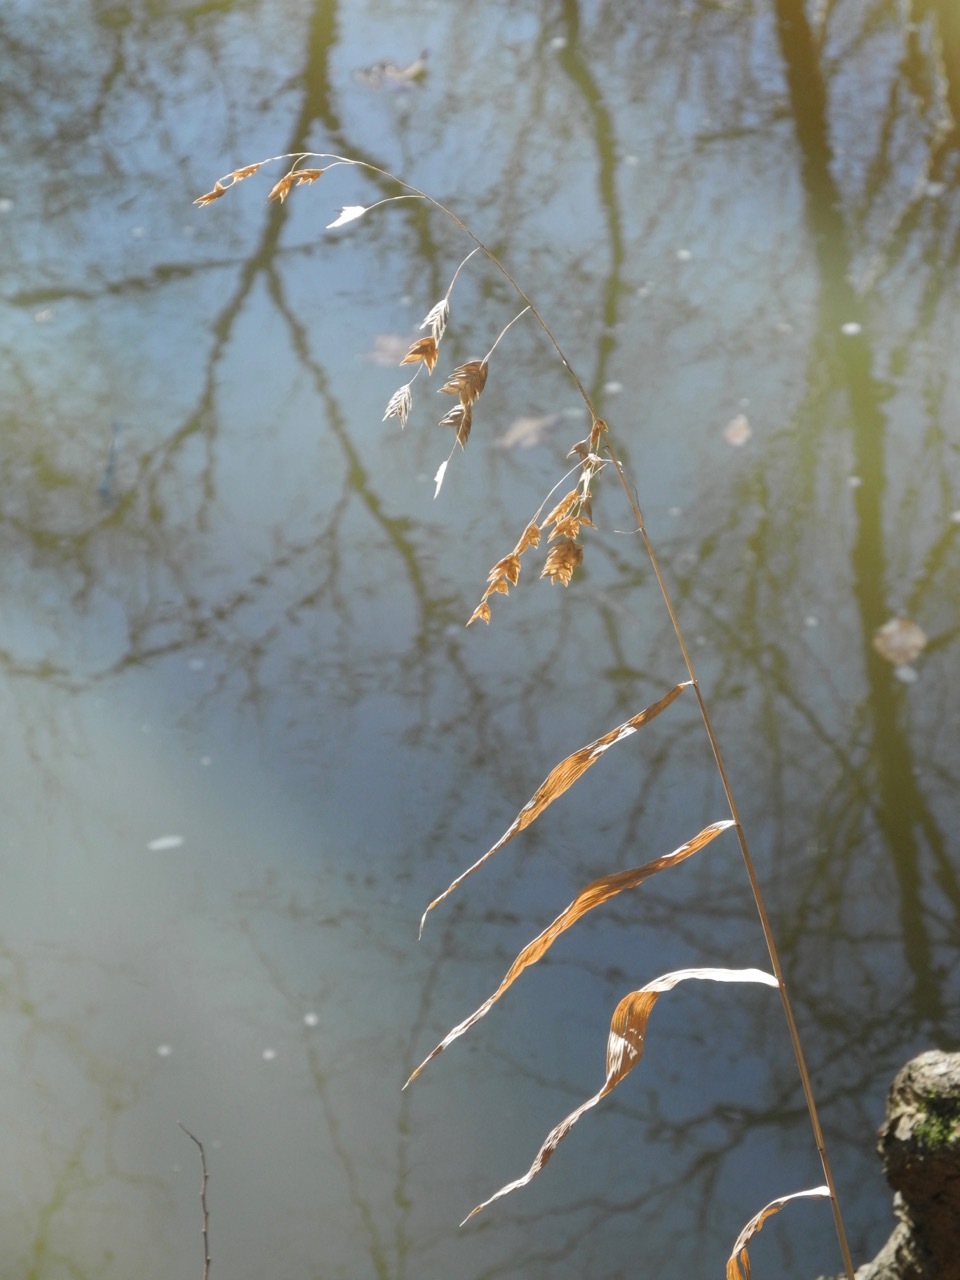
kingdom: Plantae
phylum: Tracheophyta
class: Liliopsida
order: Poales
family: Poaceae
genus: Chasmanthium
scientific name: Chasmanthium latifolium
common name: Broad-leaved chasmanthium
